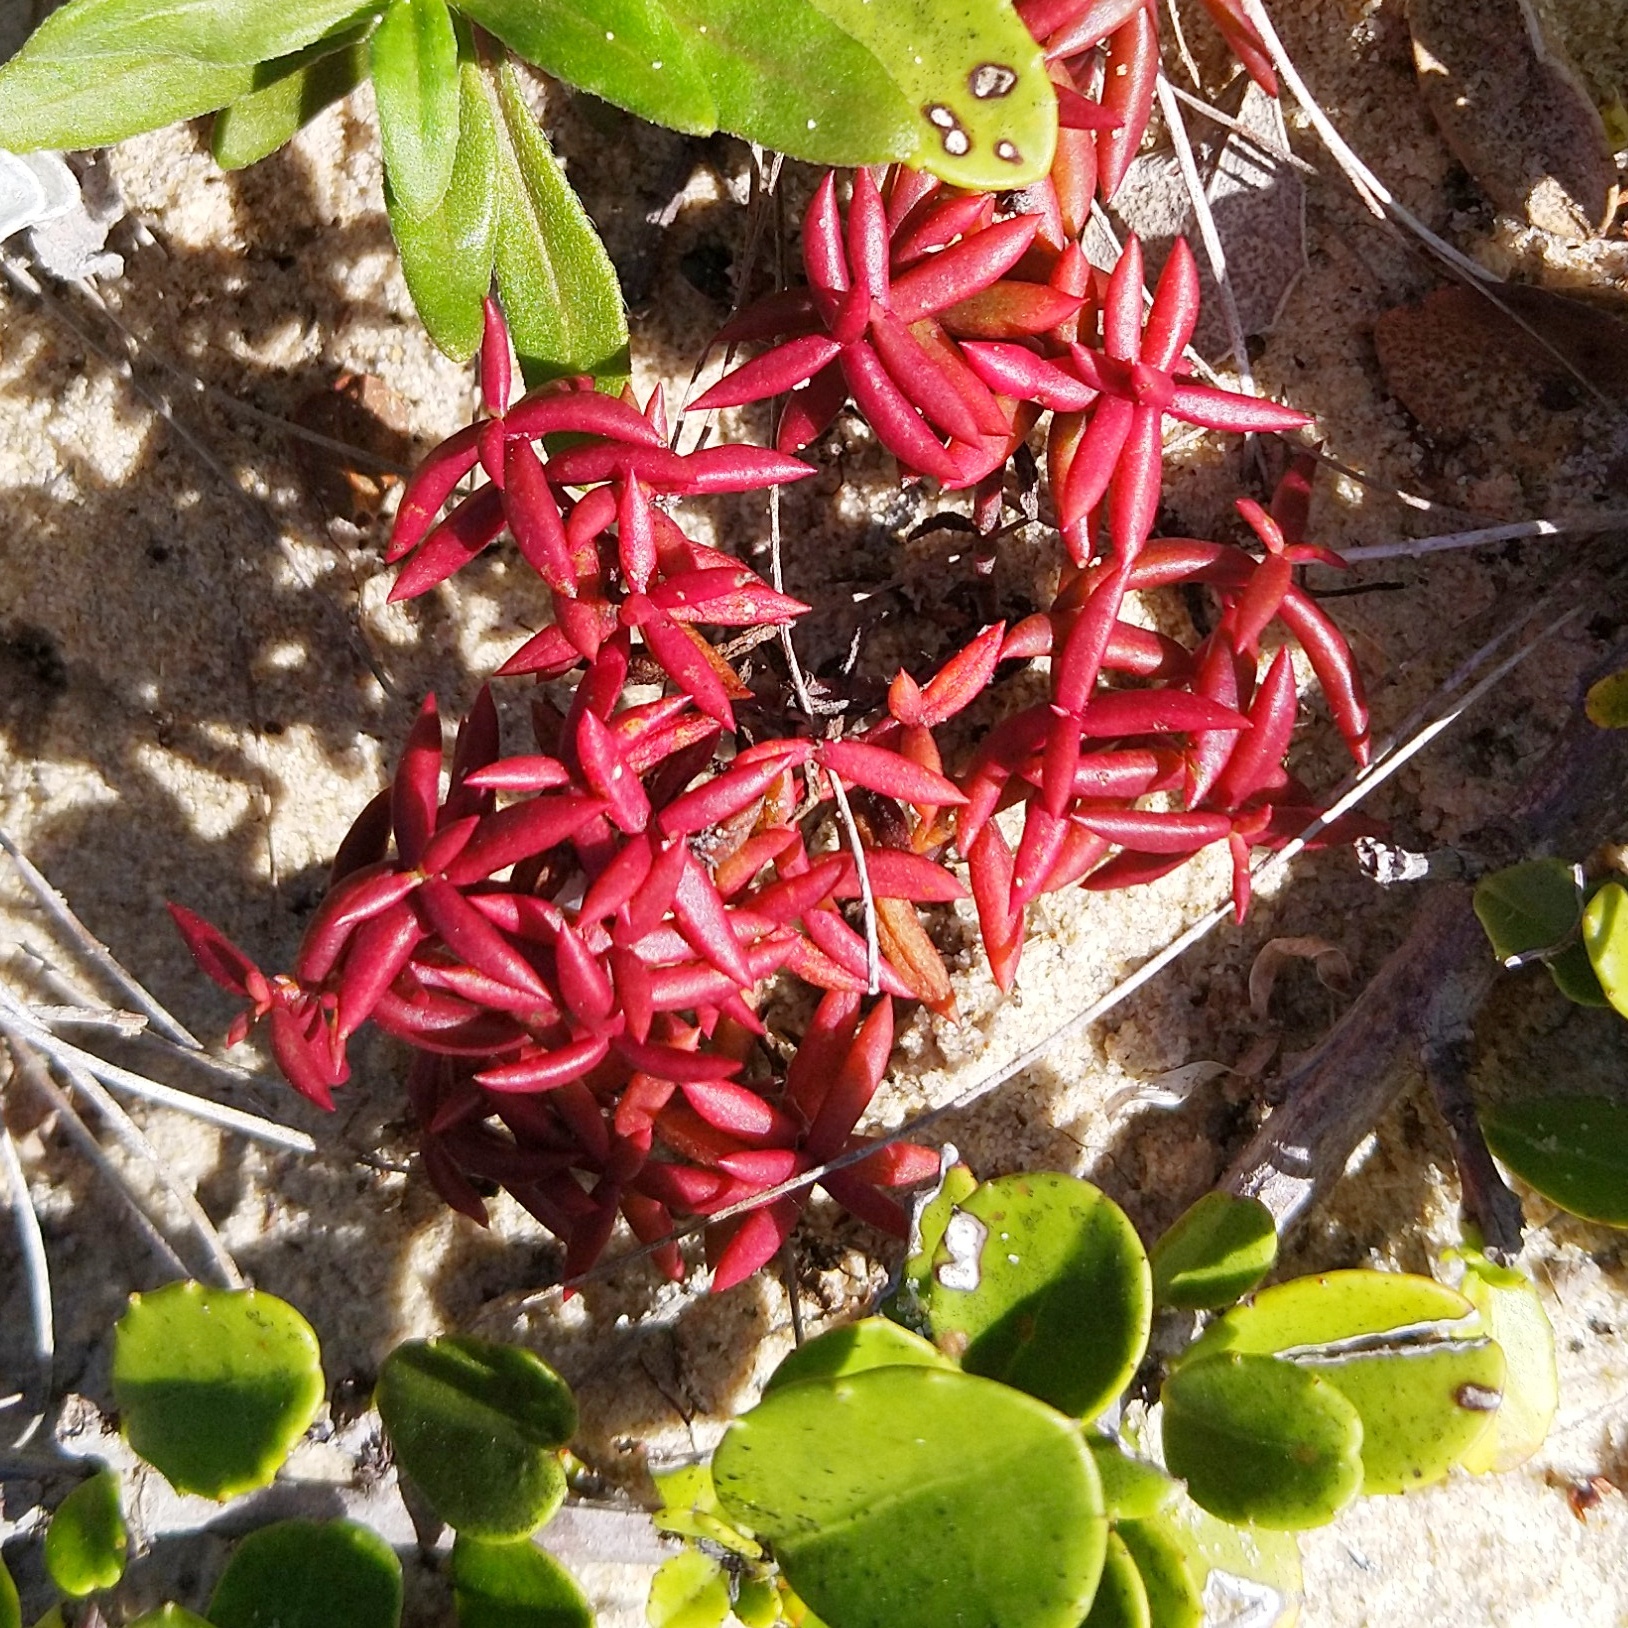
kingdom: Plantae
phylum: Tracheophyta
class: Magnoliopsida
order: Saxifragales
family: Crassulaceae
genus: Crassula
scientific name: Crassula expansa
